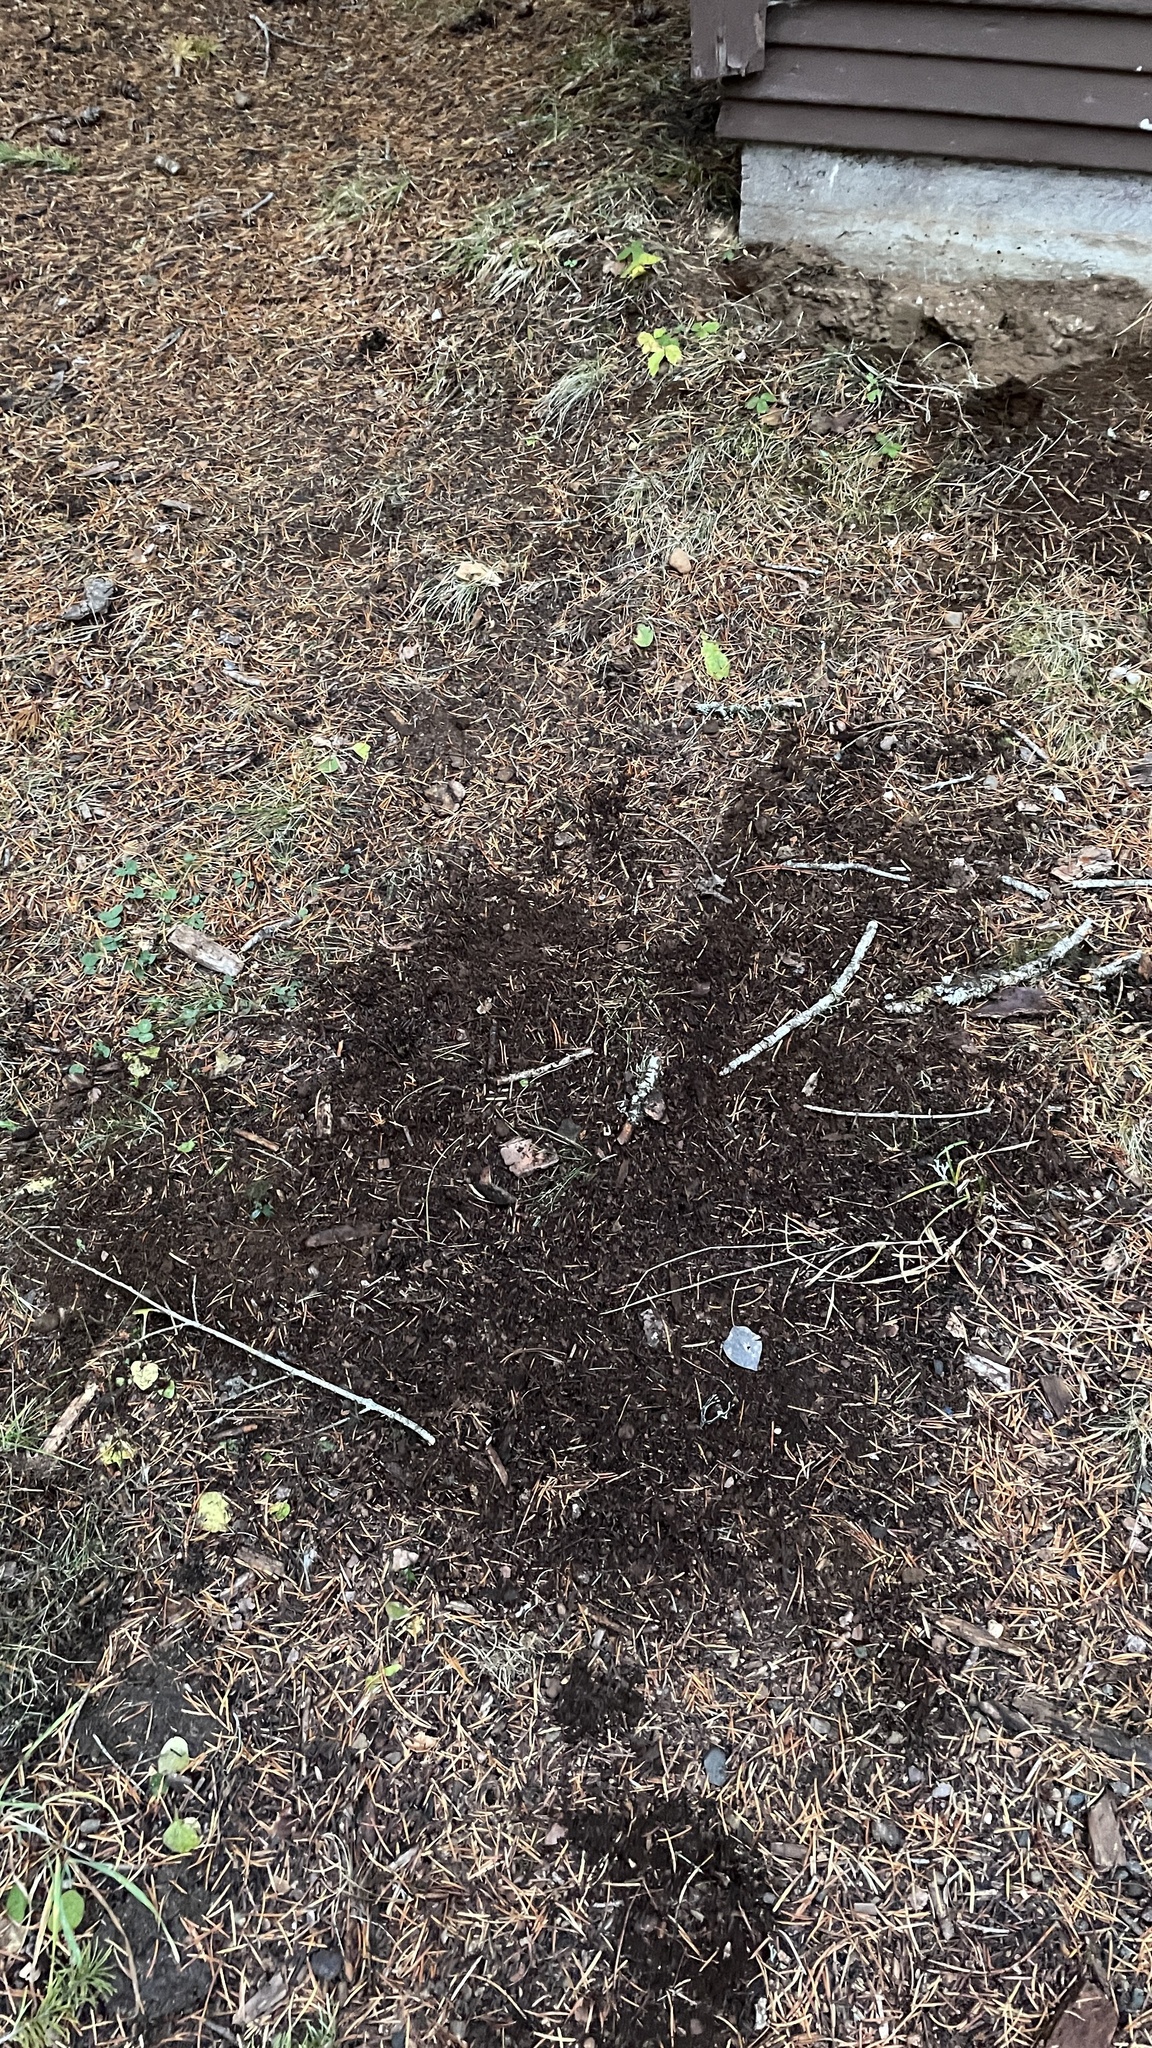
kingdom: Fungi
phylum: Ascomycota
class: Pezizomycetes
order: Pezizales
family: Tuberaceae
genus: Tuber
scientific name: Tuber anniae
